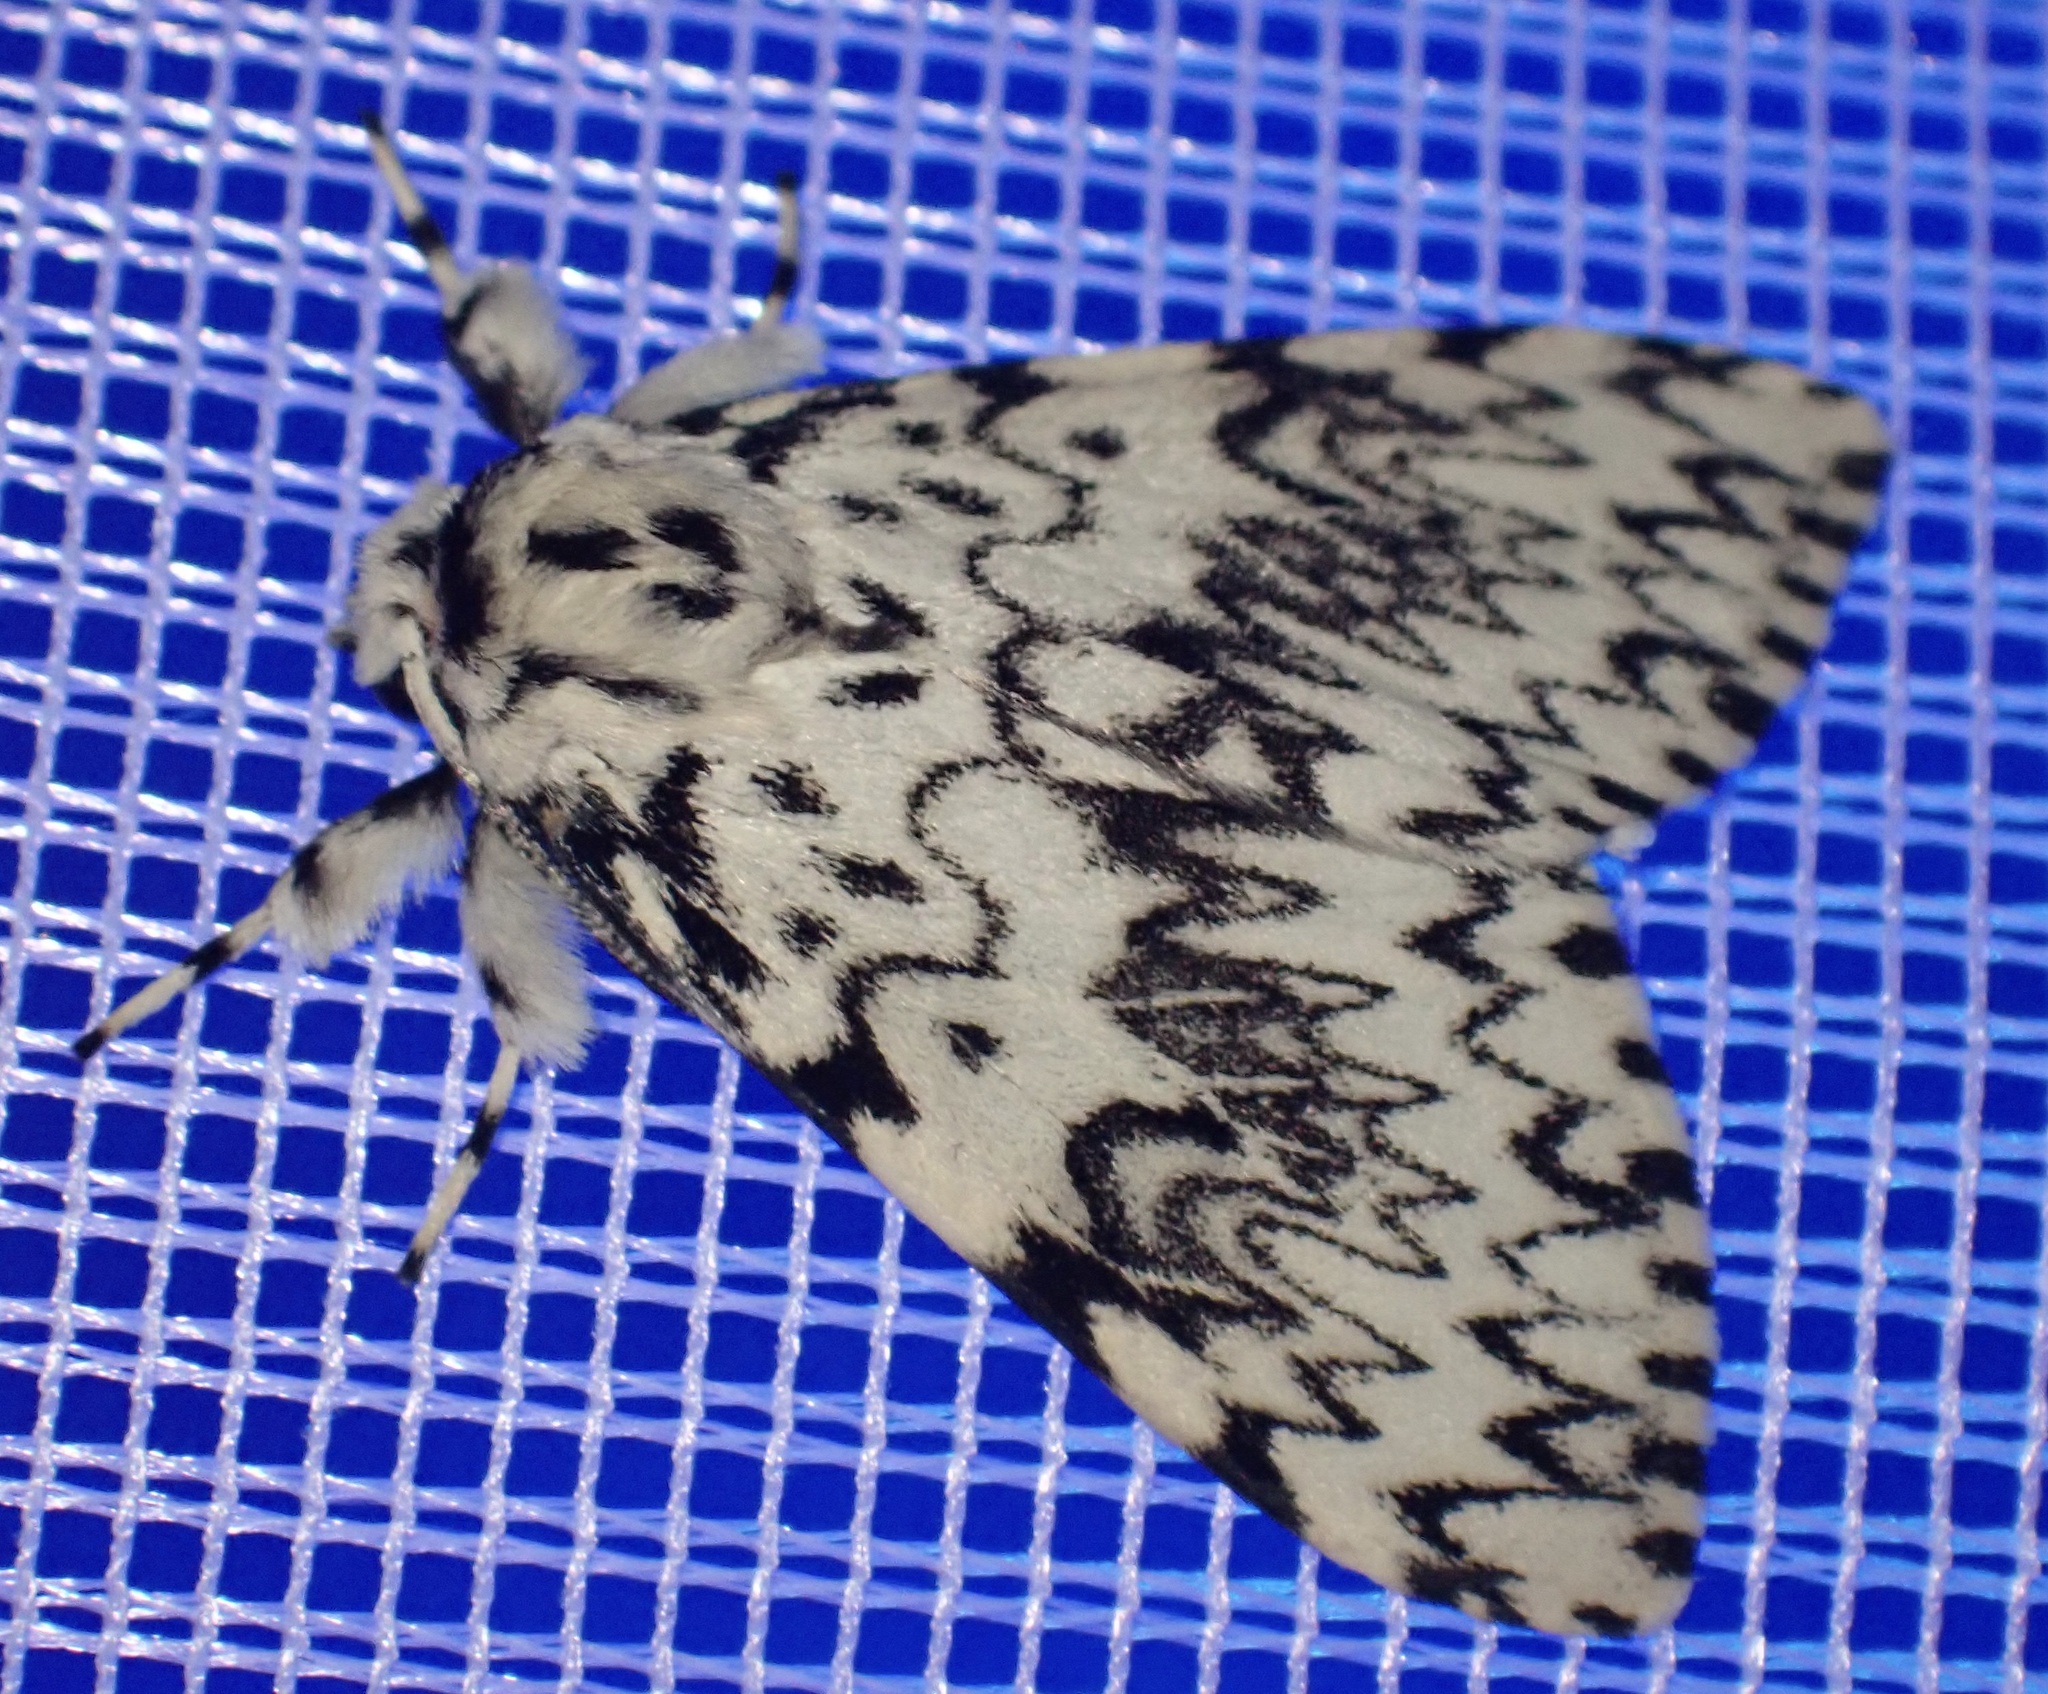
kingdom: Animalia
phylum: Arthropoda
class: Insecta
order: Lepidoptera
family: Erebidae
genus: Lymantria
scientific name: Lymantria monacha
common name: Black arches
